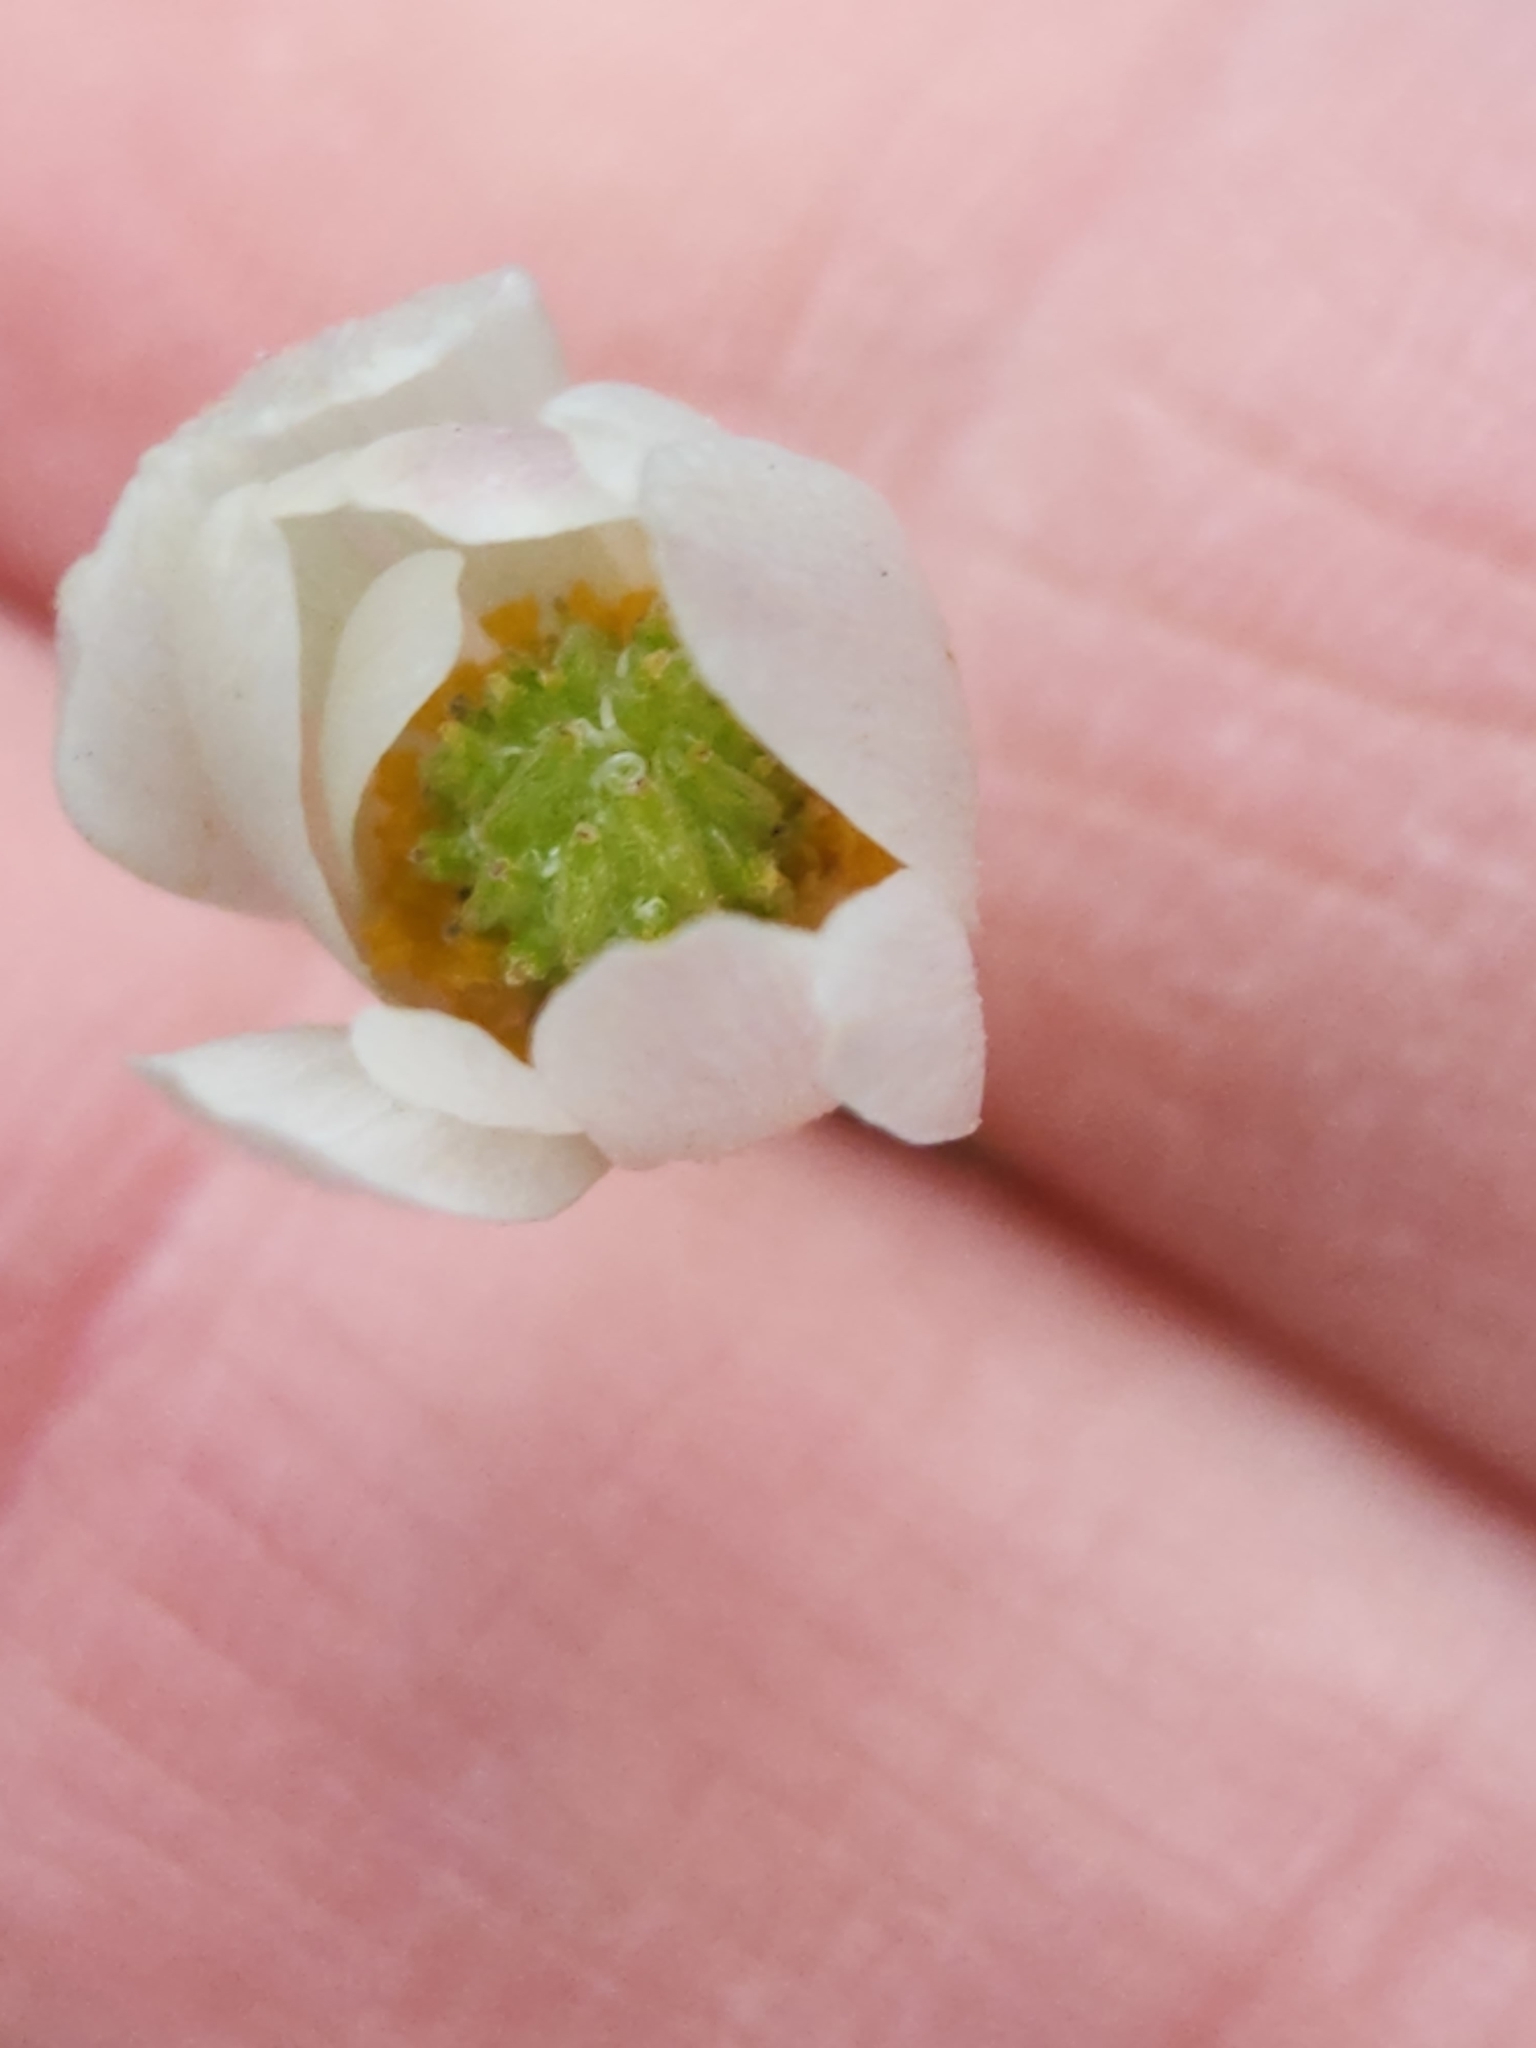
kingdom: Plantae
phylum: Tracheophyta
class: Magnoliopsida
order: Ranunculales
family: Ranunculaceae
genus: Anemone
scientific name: Anemone edwardsiana
